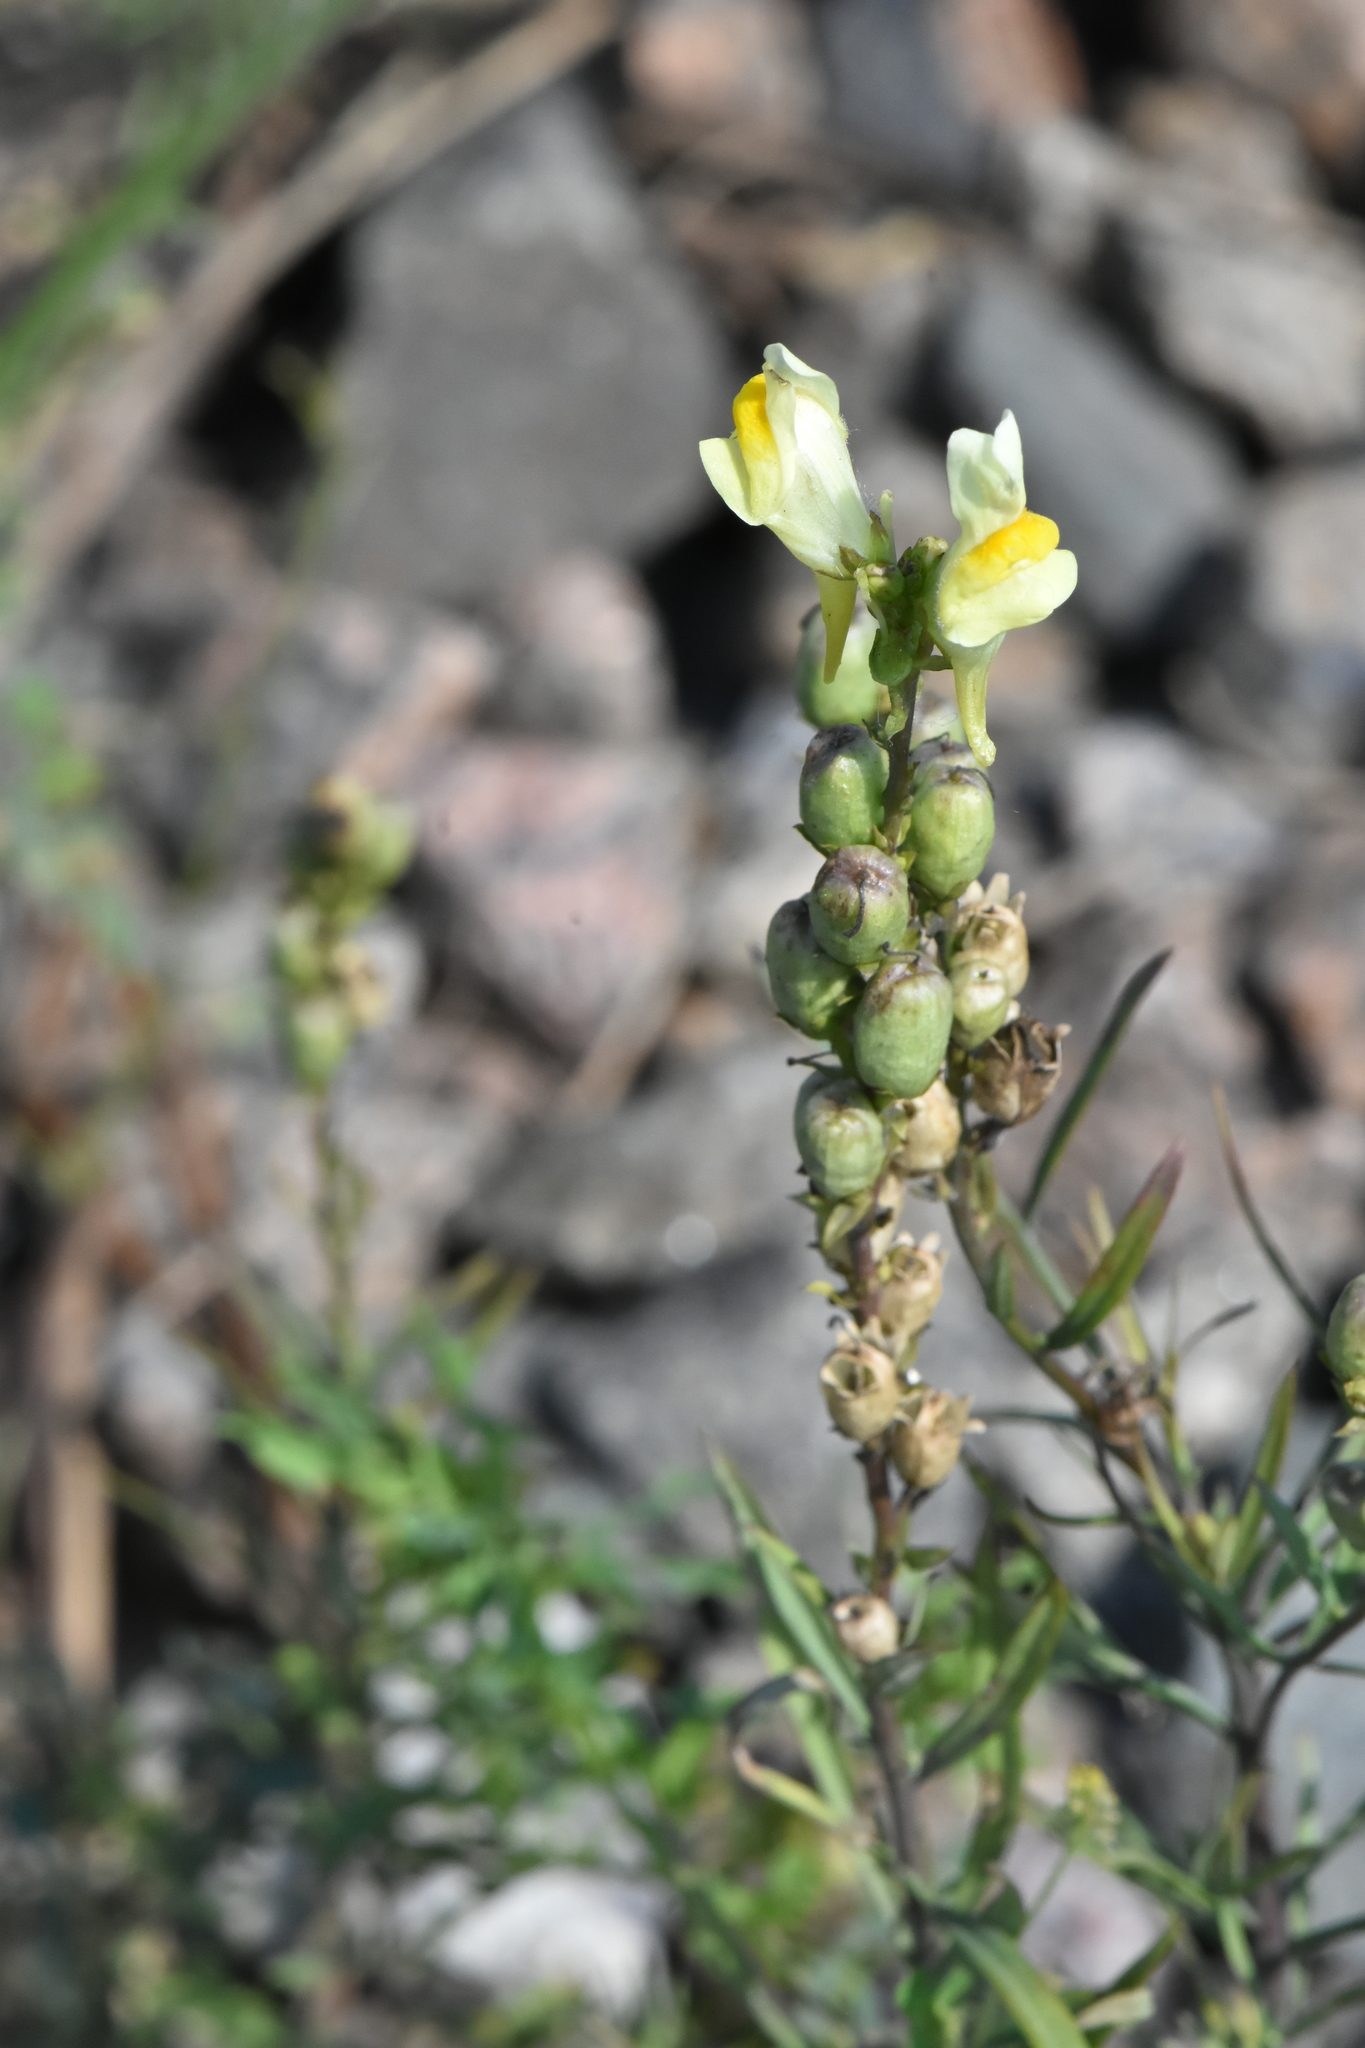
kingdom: Plantae
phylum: Tracheophyta
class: Magnoliopsida
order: Lamiales
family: Plantaginaceae
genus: Linaria
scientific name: Linaria vulgaris
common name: Butter and eggs
